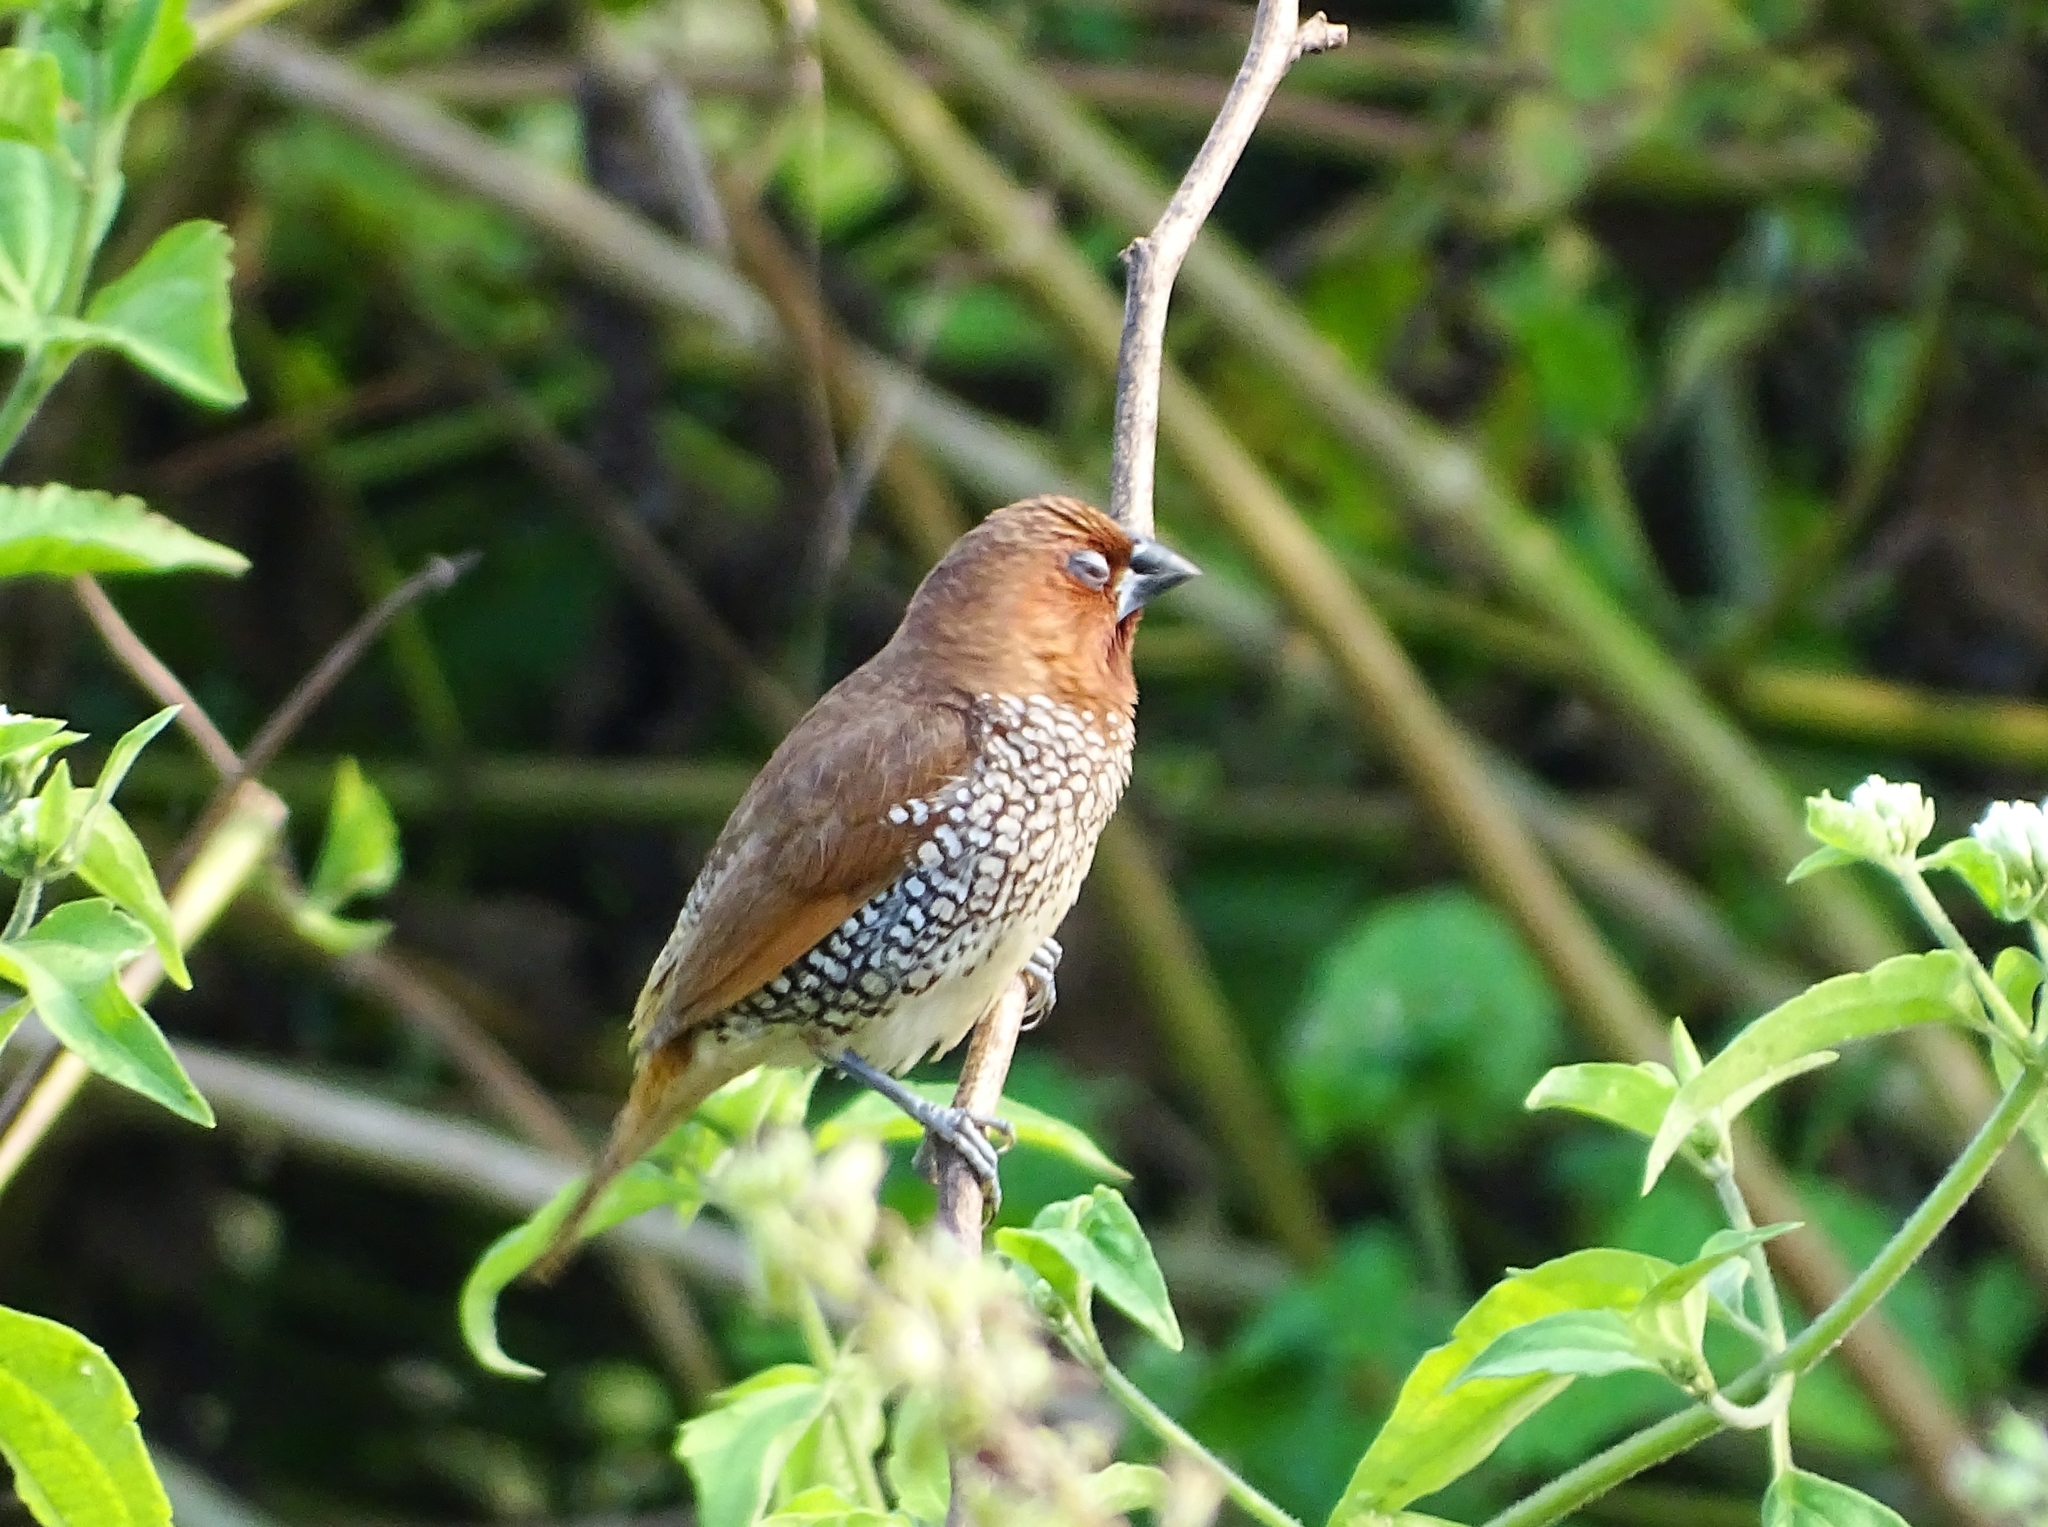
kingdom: Animalia
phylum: Chordata
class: Aves
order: Passeriformes
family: Estrildidae
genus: Lonchura
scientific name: Lonchura punctulata
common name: Scaly-breasted munia
